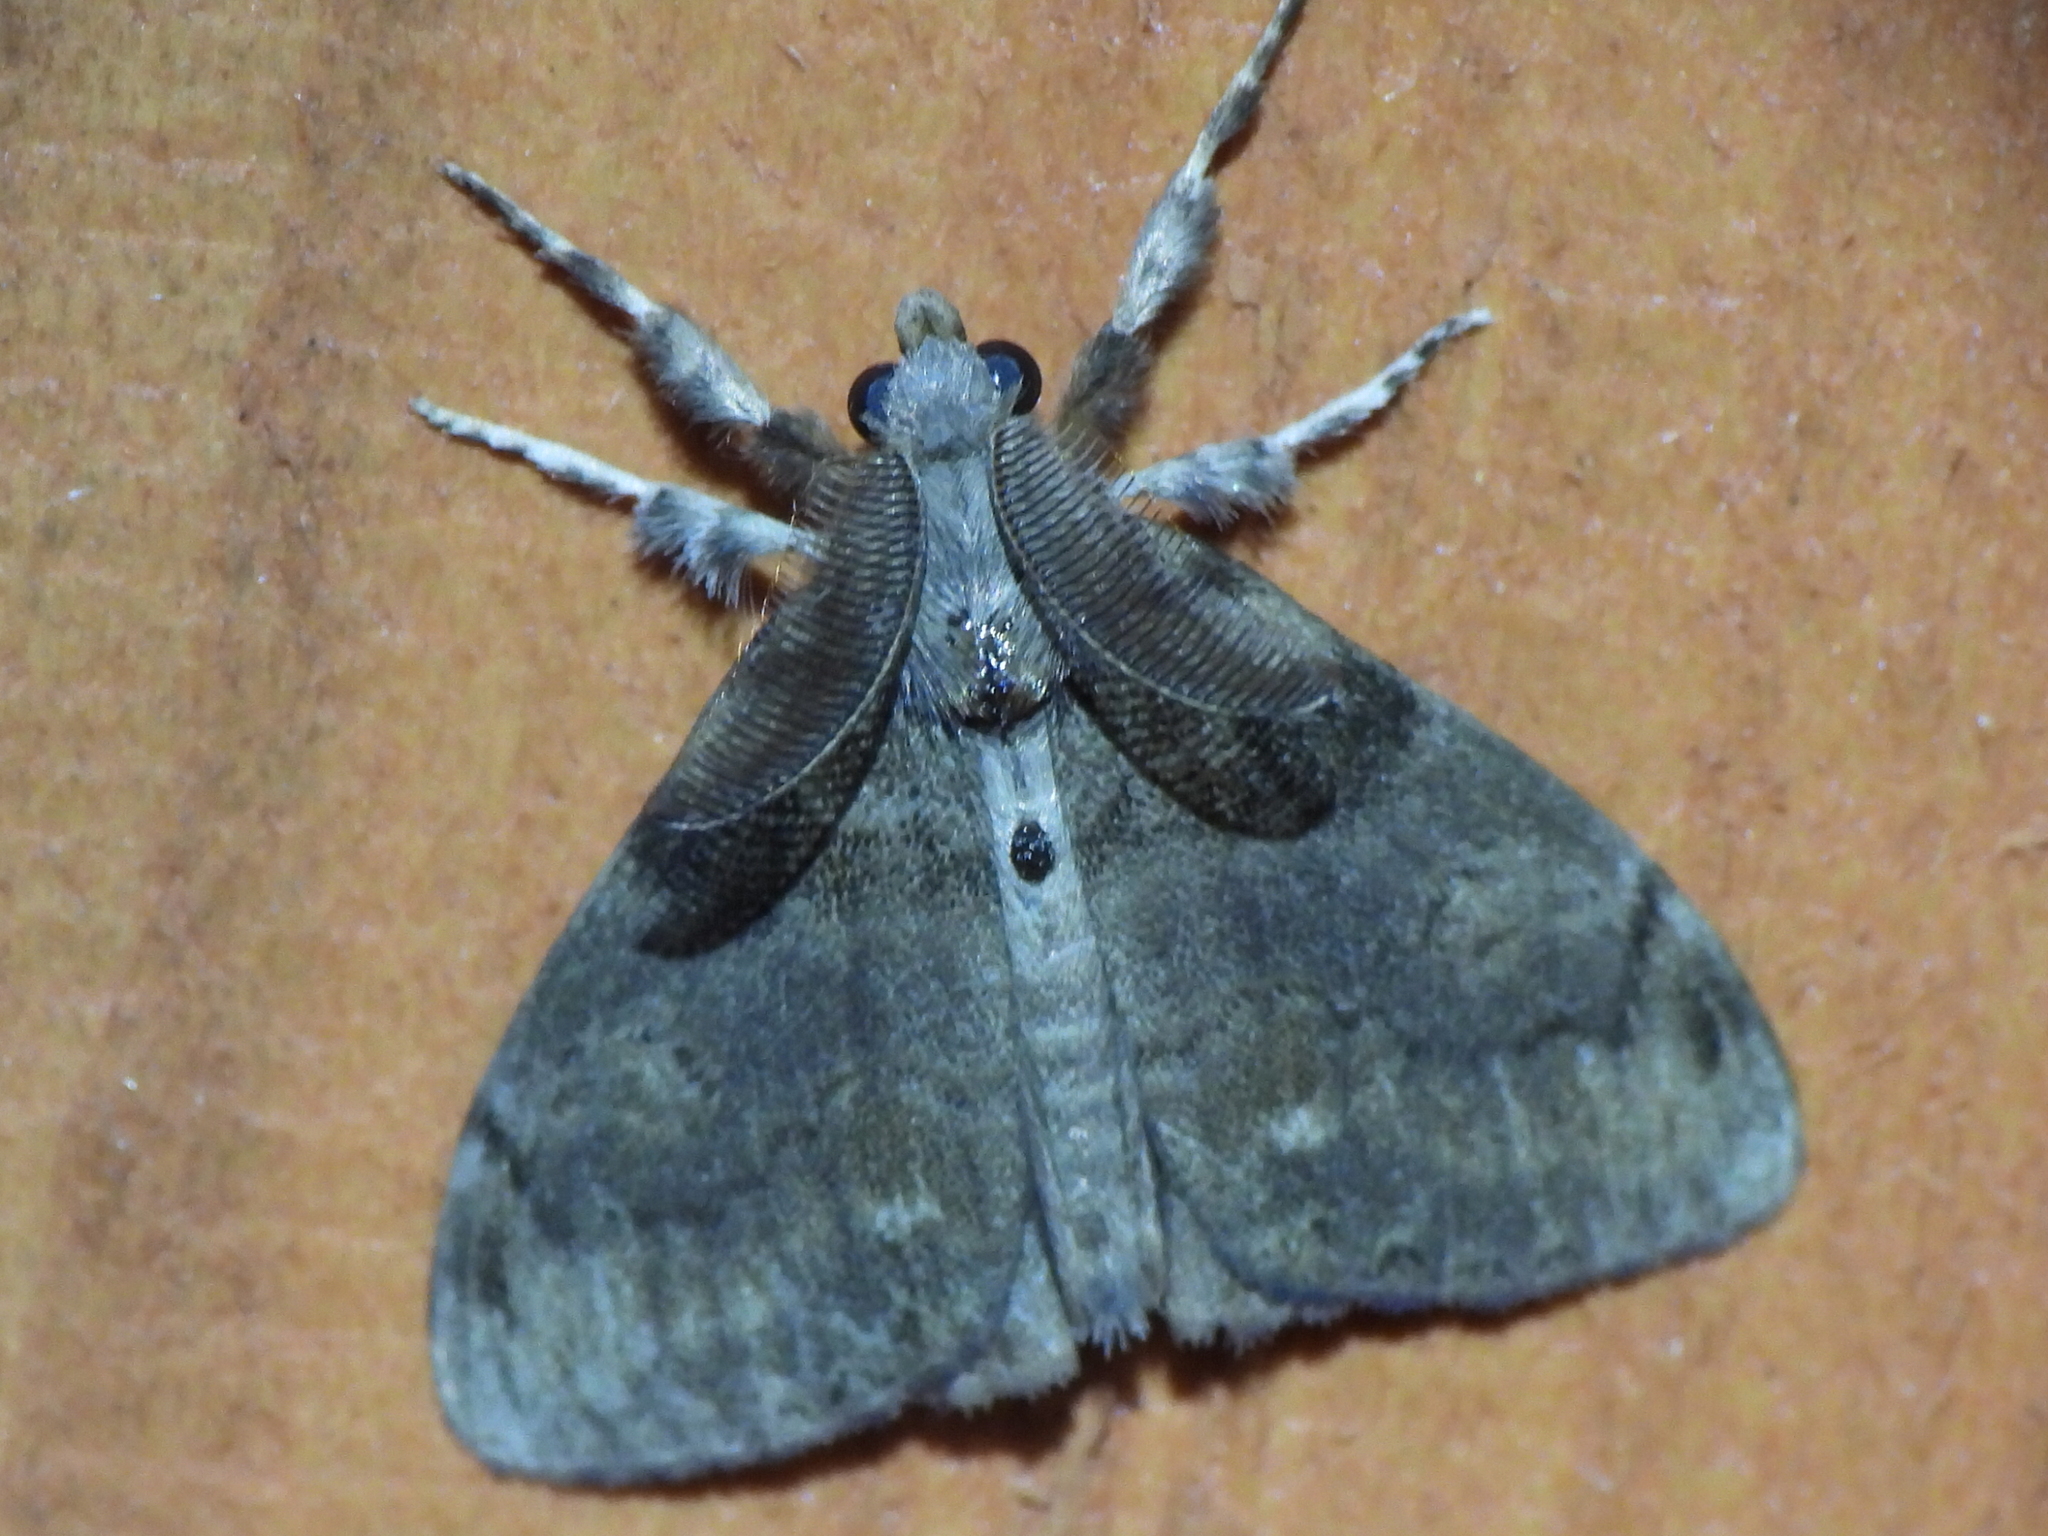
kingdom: Animalia
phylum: Arthropoda
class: Insecta
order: Lepidoptera
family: Erebidae
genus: Orgyia
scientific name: Orgyia leucostigma
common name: White-marked tussock moth
